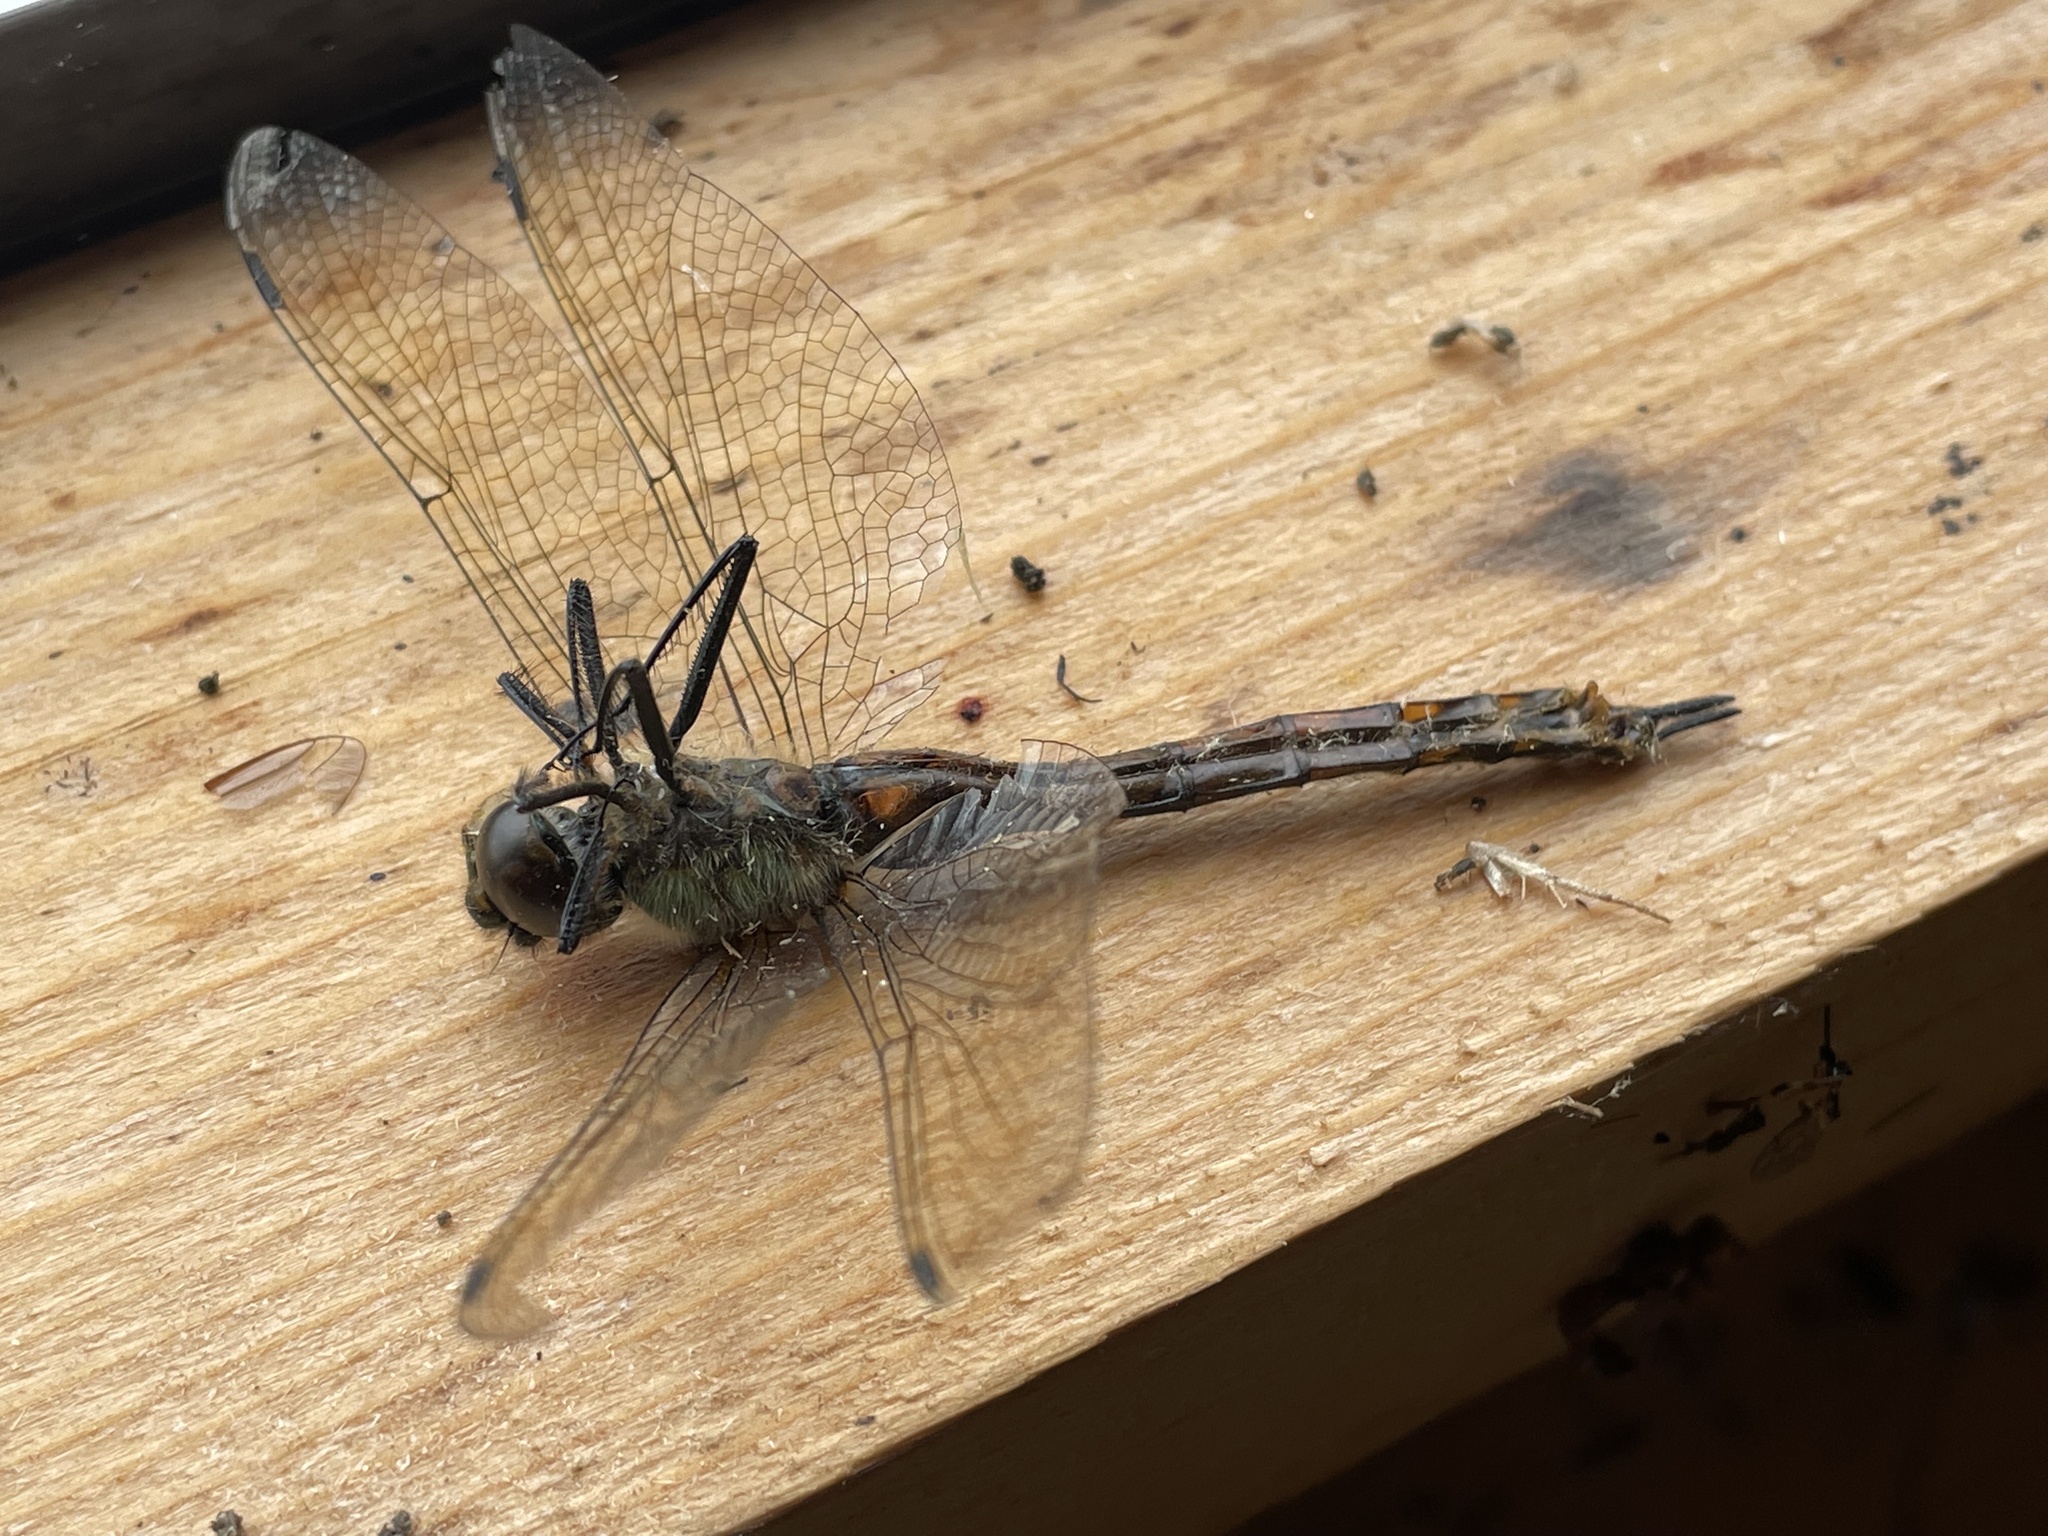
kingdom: Animalia
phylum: Arthropoda
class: Insecta
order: Odonata
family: Corduliidae
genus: Somatochlora
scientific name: Somatochlora flavomaculata
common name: Yellow-spotted emerald
